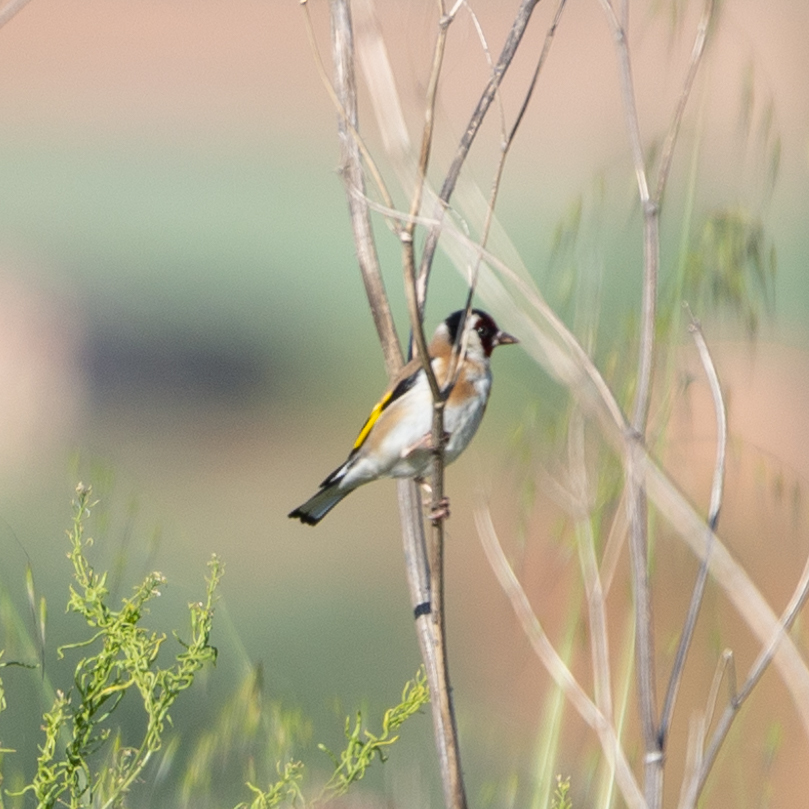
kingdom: Animalia
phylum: Chordata
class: Aves
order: Passeriformes
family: Fringillidae
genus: Carduelis
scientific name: Carduelis carduelis
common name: European goldfinch
